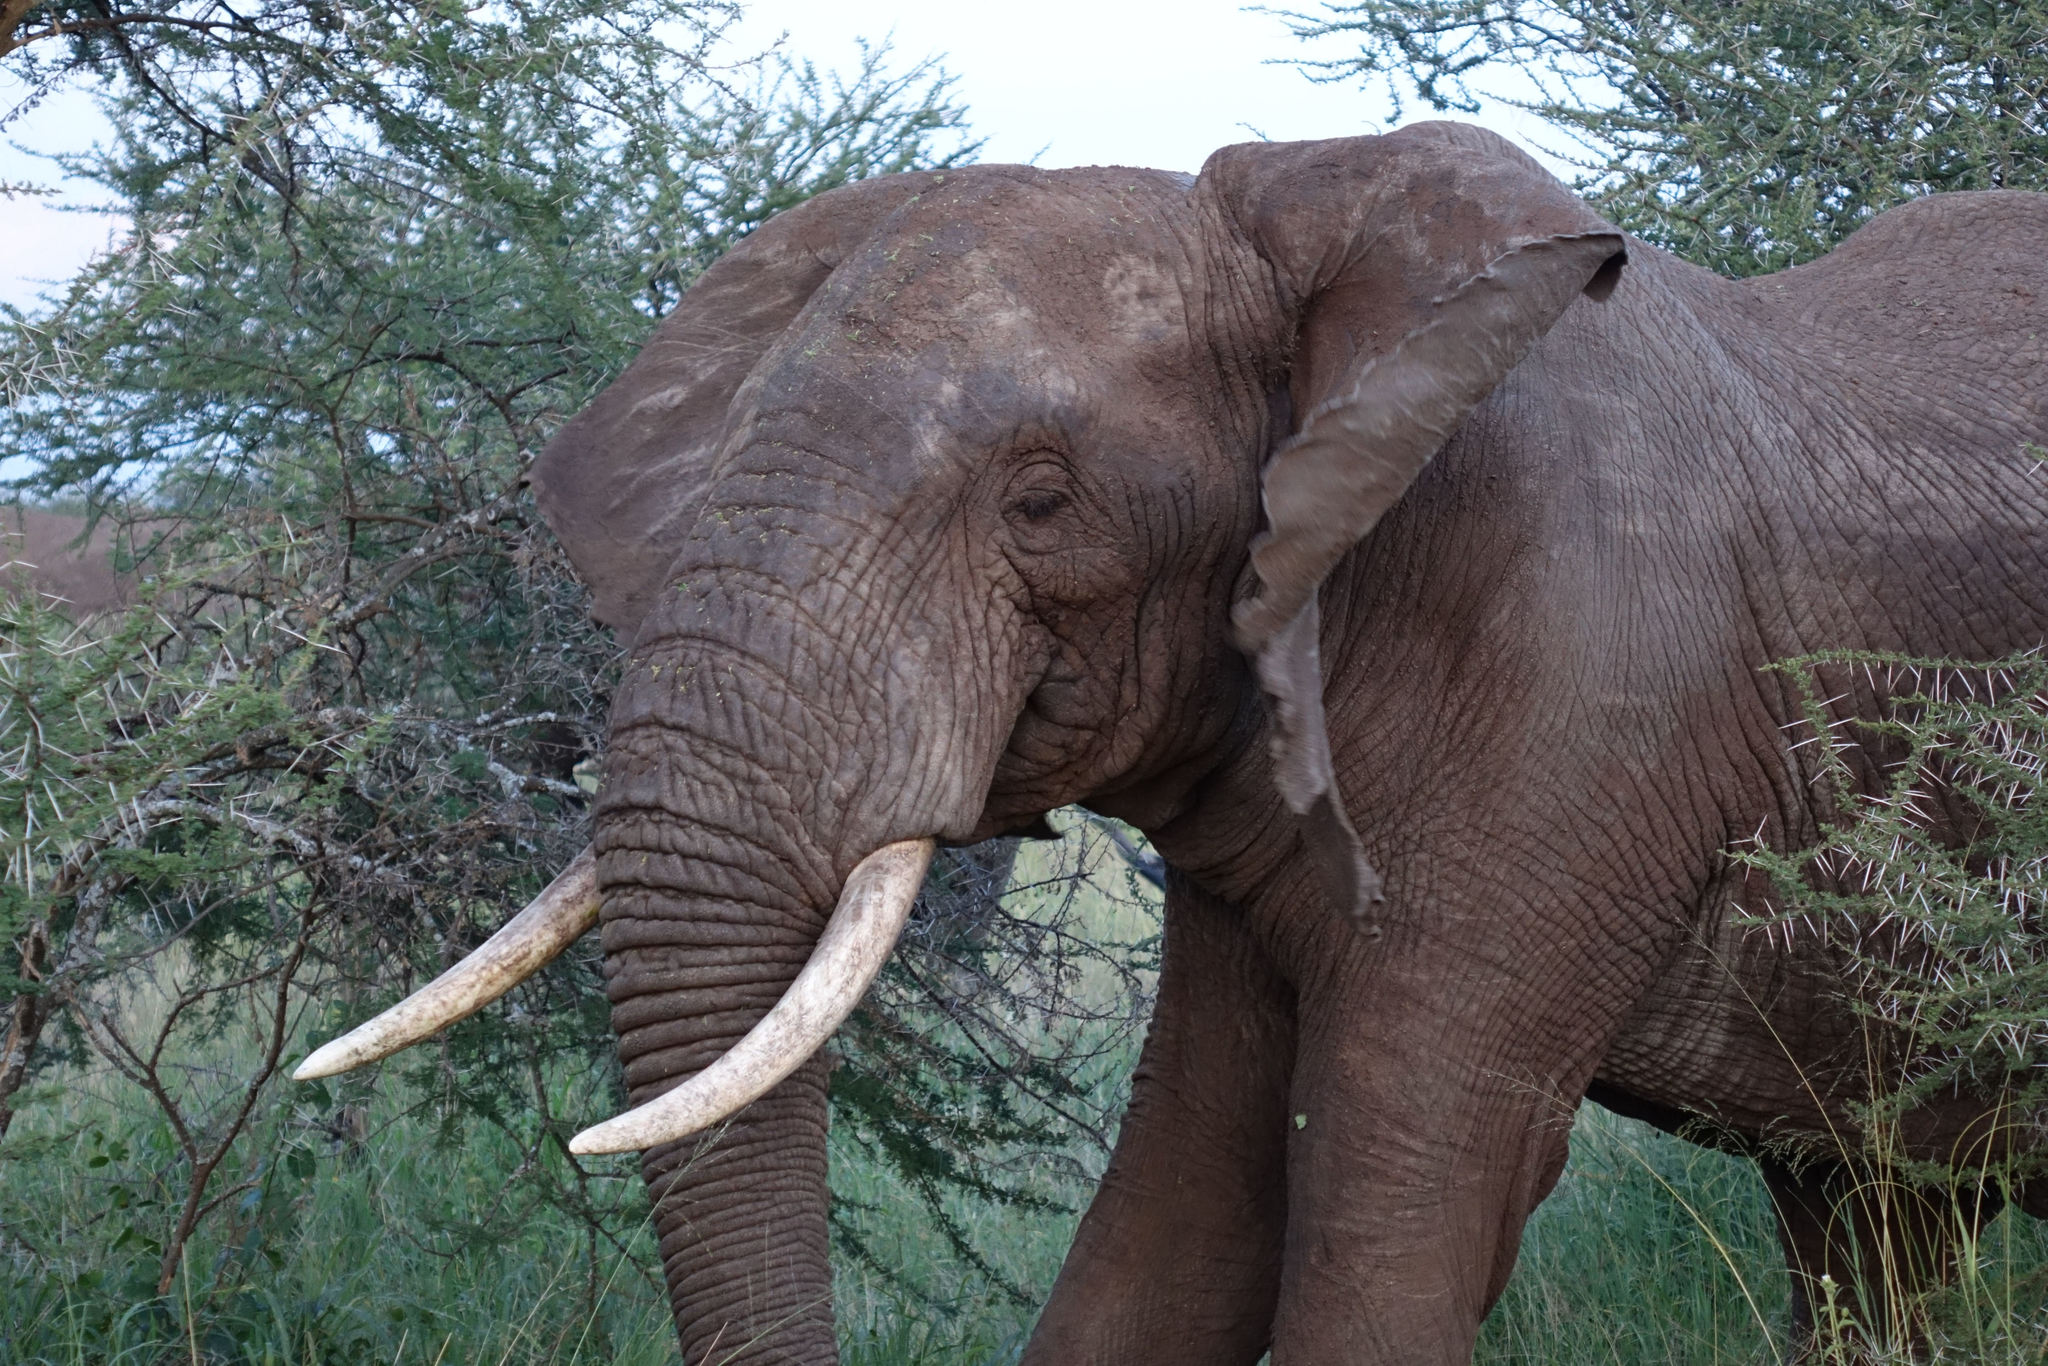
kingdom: Animalia
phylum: Chordata
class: Mammalia
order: Proboscidea
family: Elephantidae
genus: Loxodonta
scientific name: Loxodonta africana
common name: African elephant
